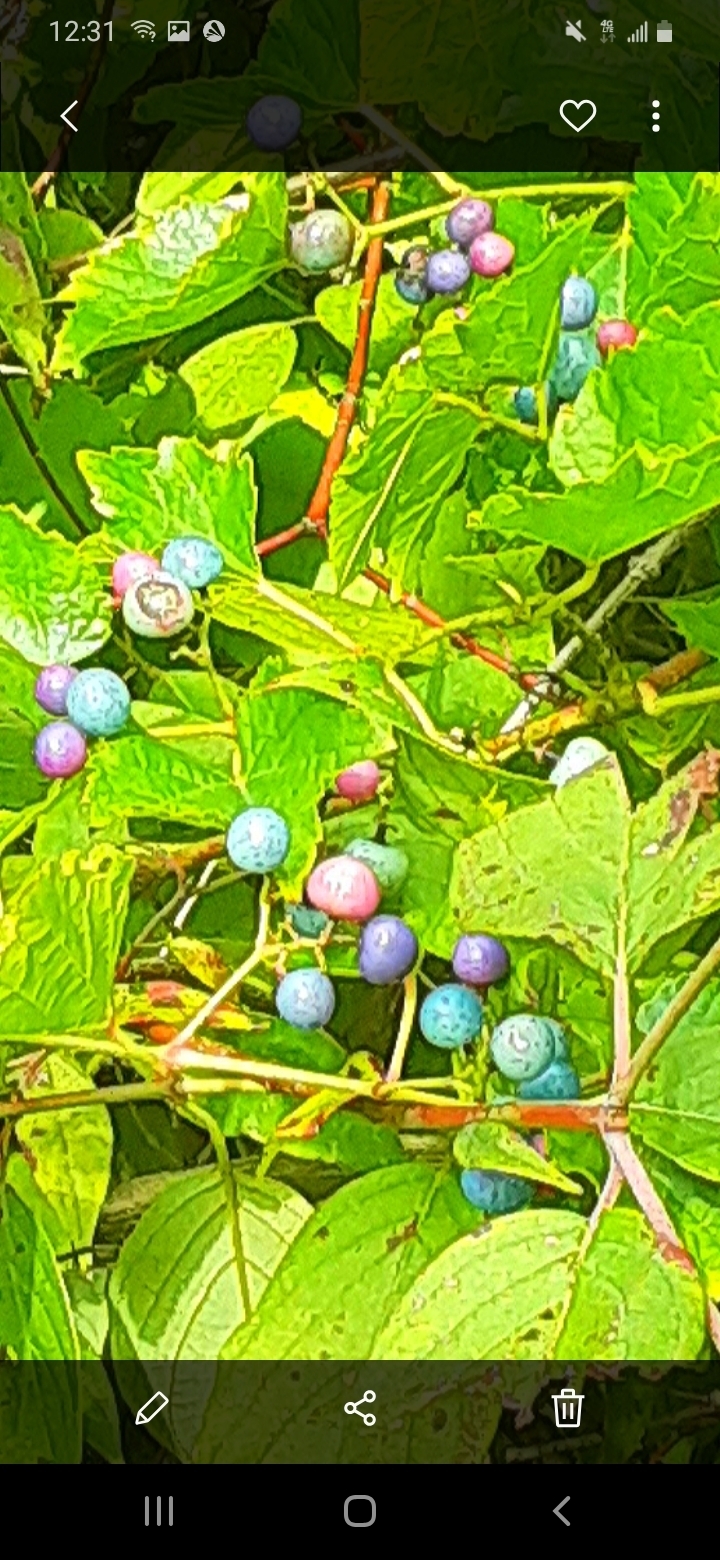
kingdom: Plantae
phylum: Tracheophyta
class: Magnoliopsida
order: Vitales
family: Vitaceae
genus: Ampelopsis
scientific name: Ampelopsis glandulosa
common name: Amur peppervine
